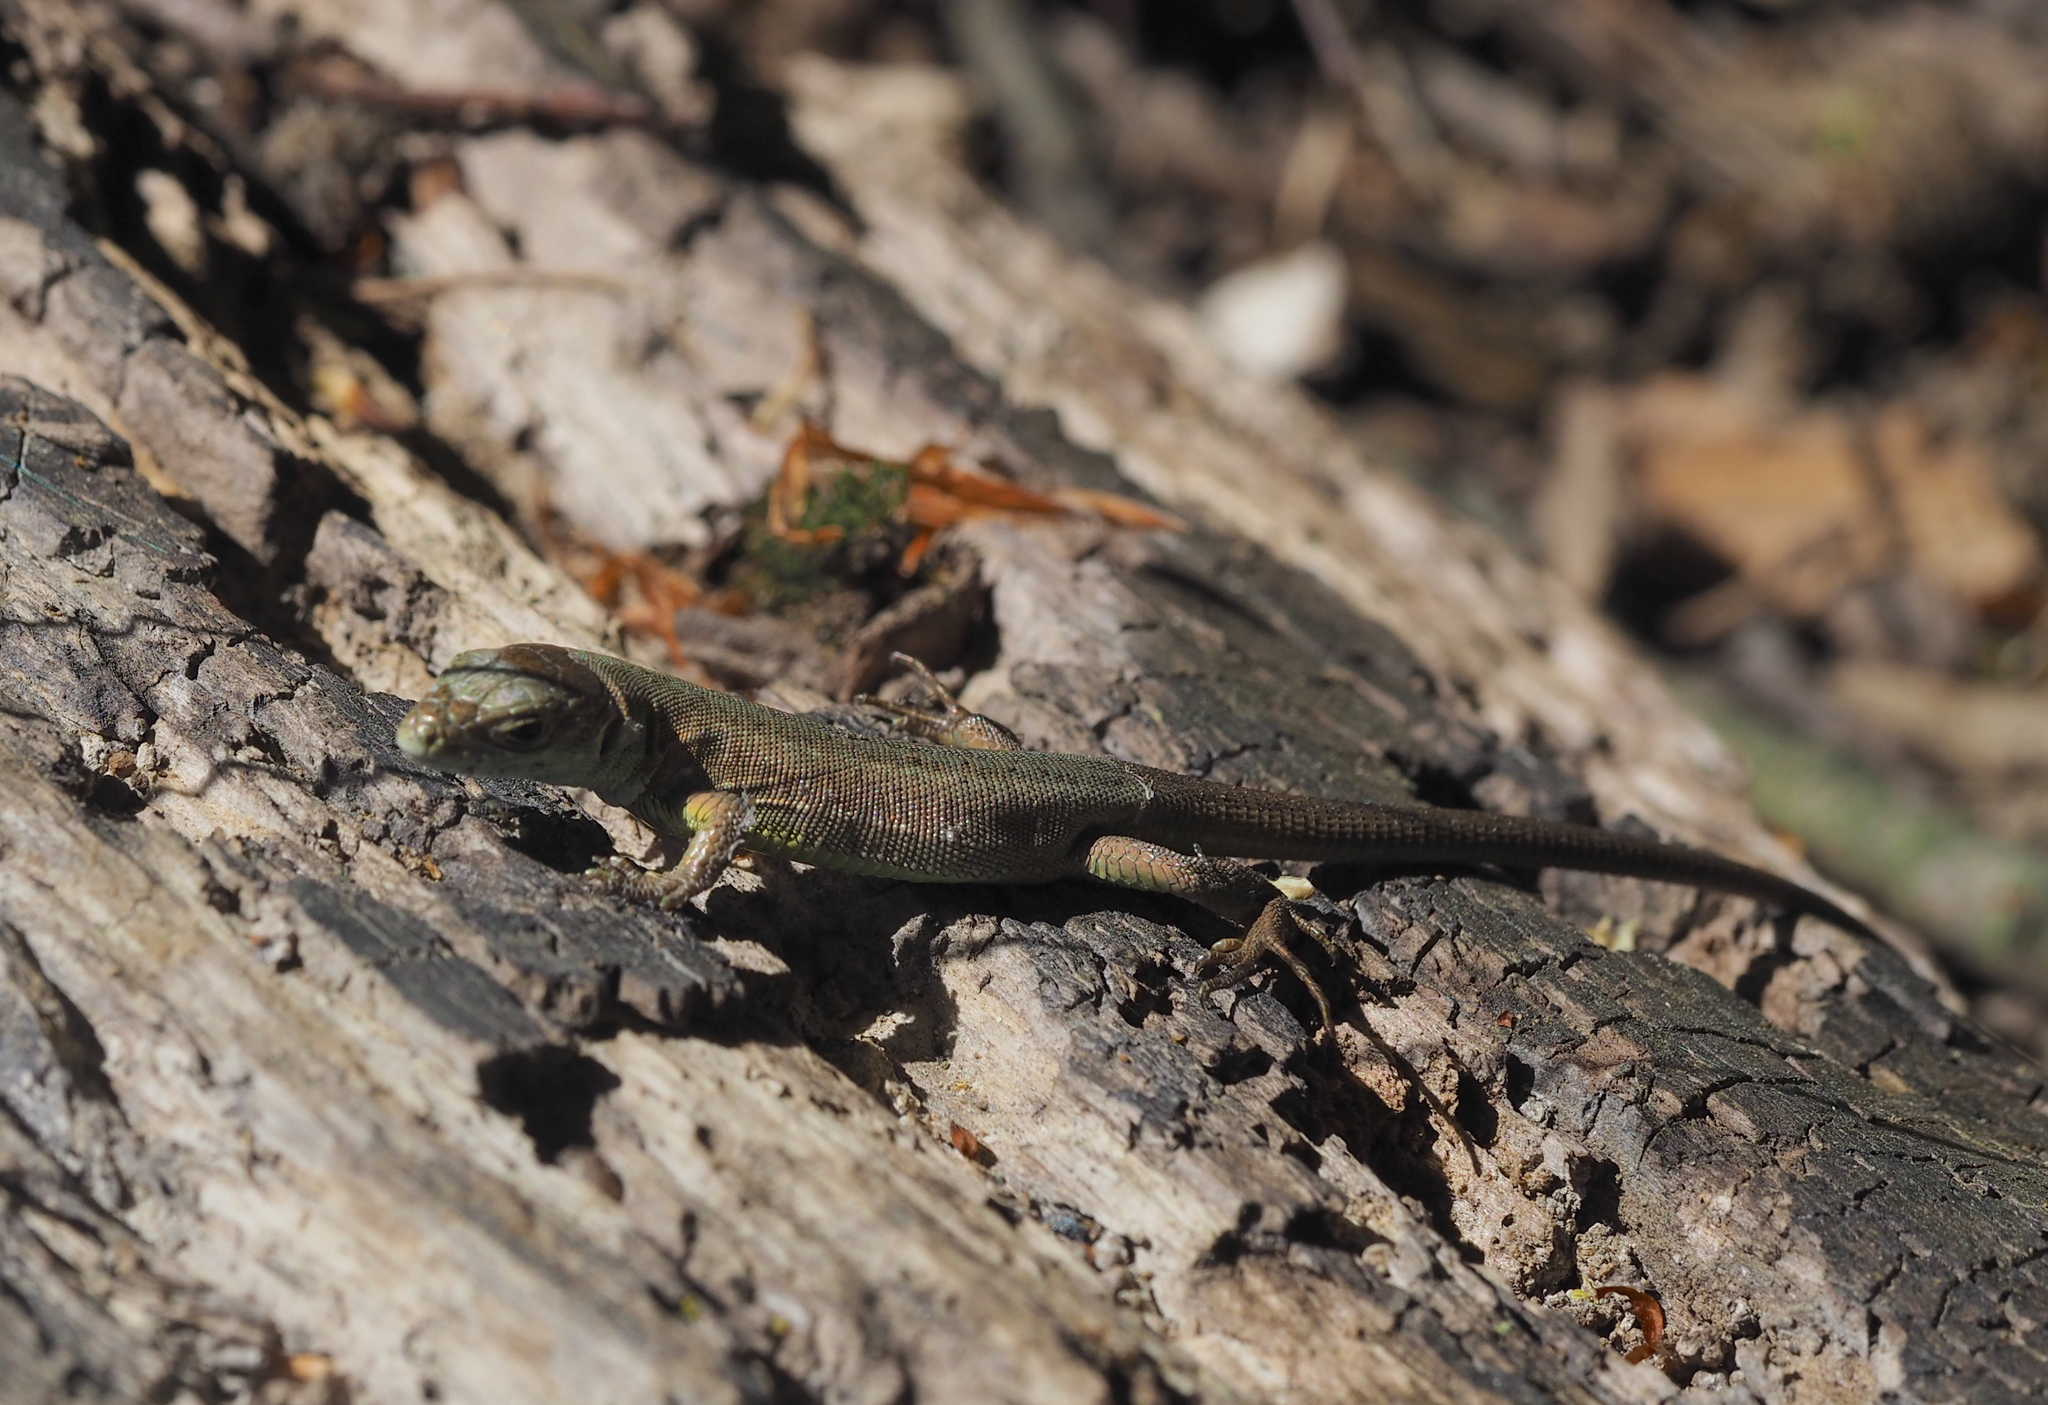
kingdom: Animalia
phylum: Chordata
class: Squamata
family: Lacertidae
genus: Lacerta
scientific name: Lacerta viridis
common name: European green lizard
